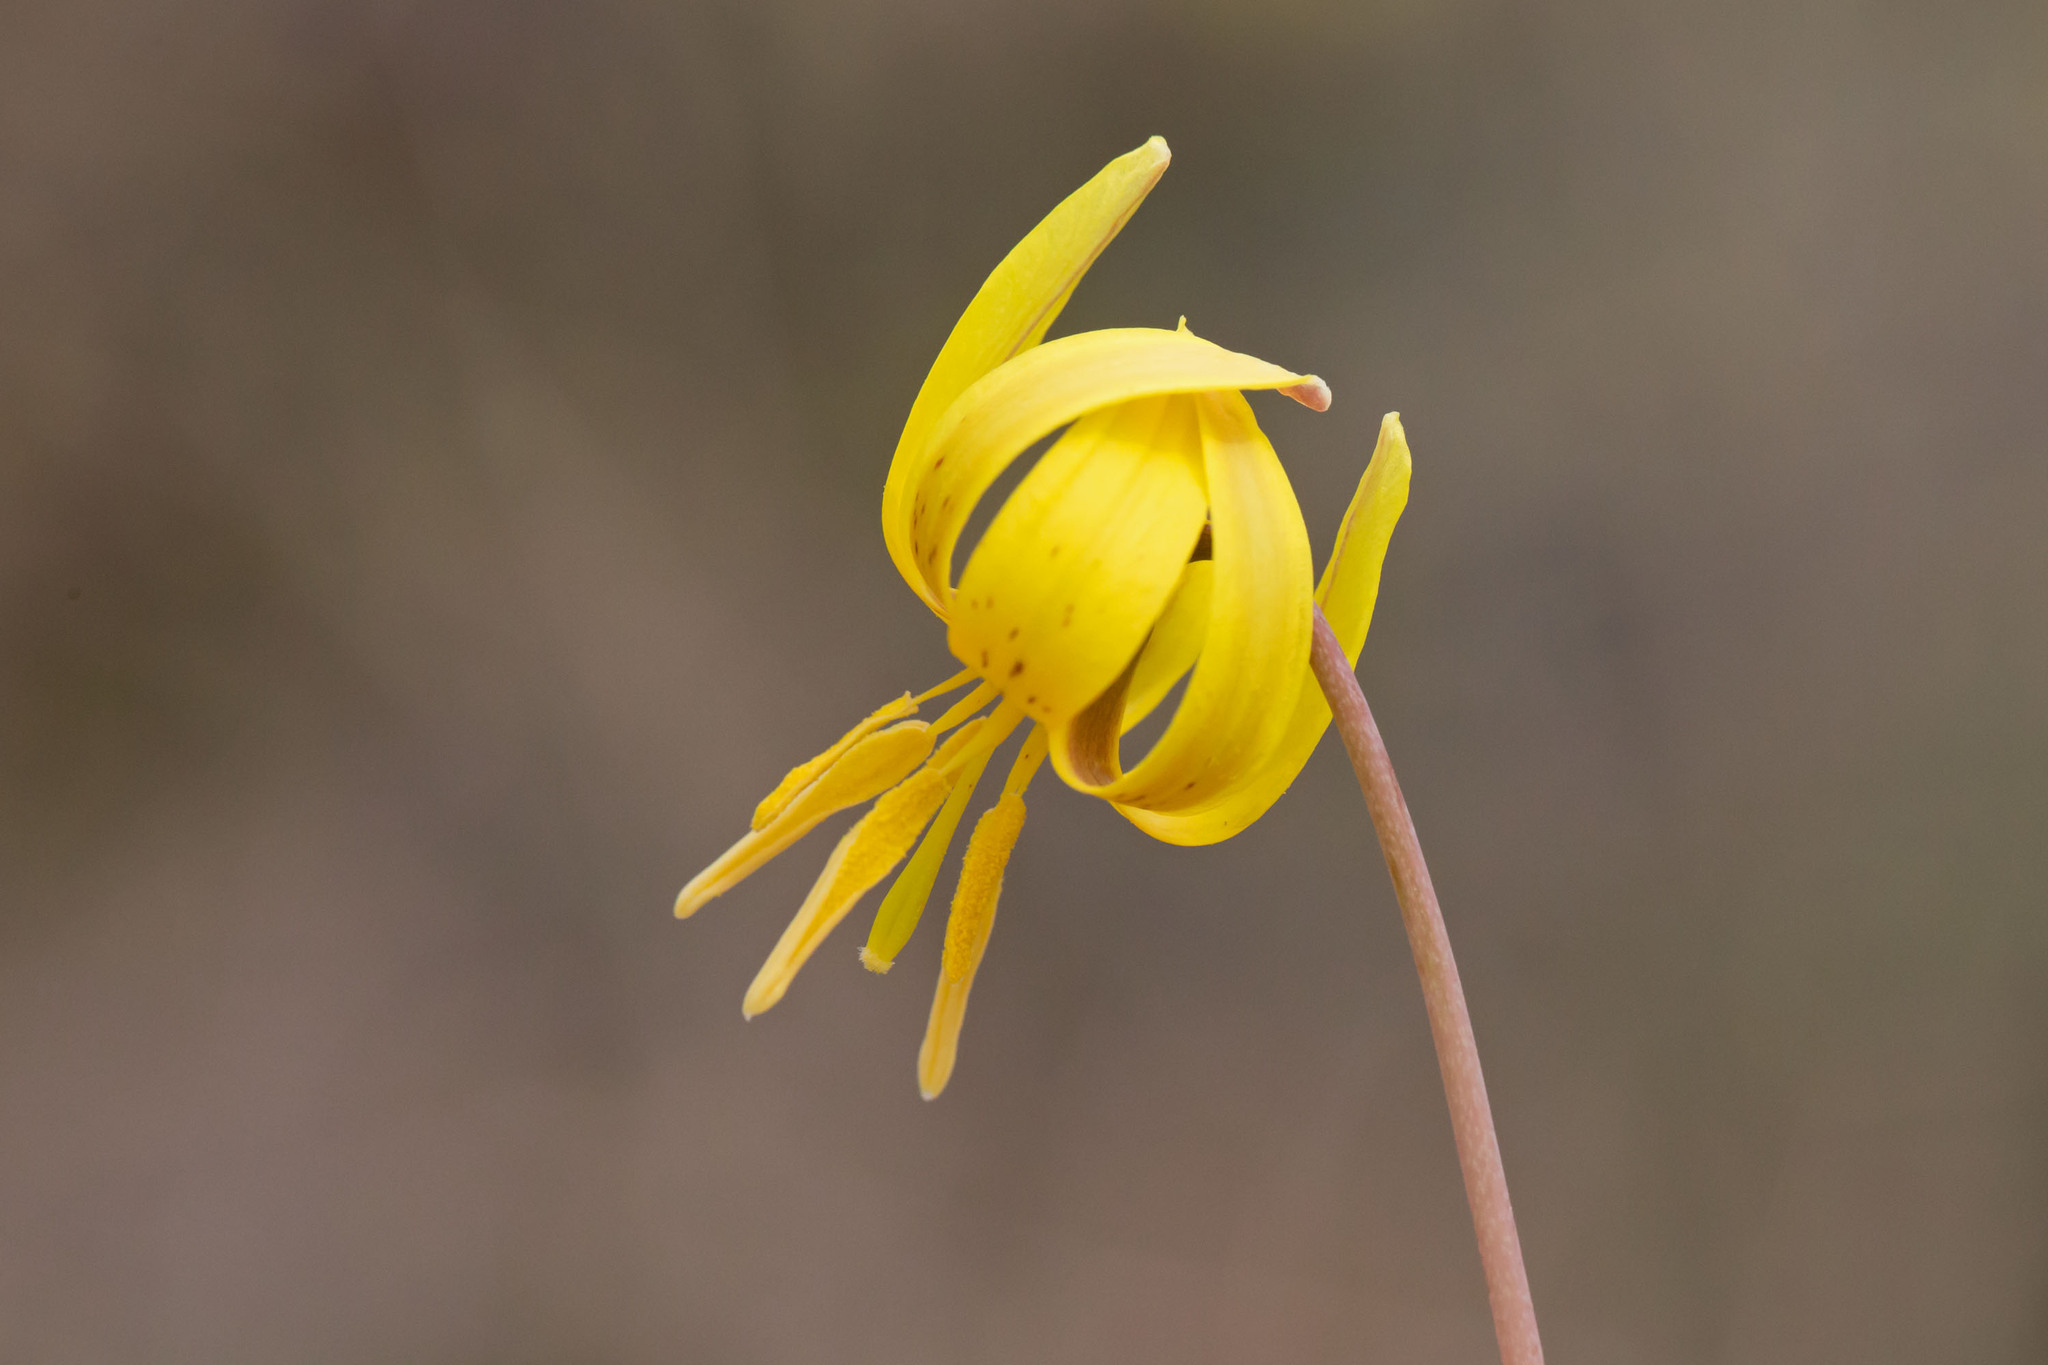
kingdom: Plantae
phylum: Tracheophyta
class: Liliopsida
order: Liliales
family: Liliaceae
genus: Erythronium
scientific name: Erythronium americanum
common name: Yellow adder's-tongue
